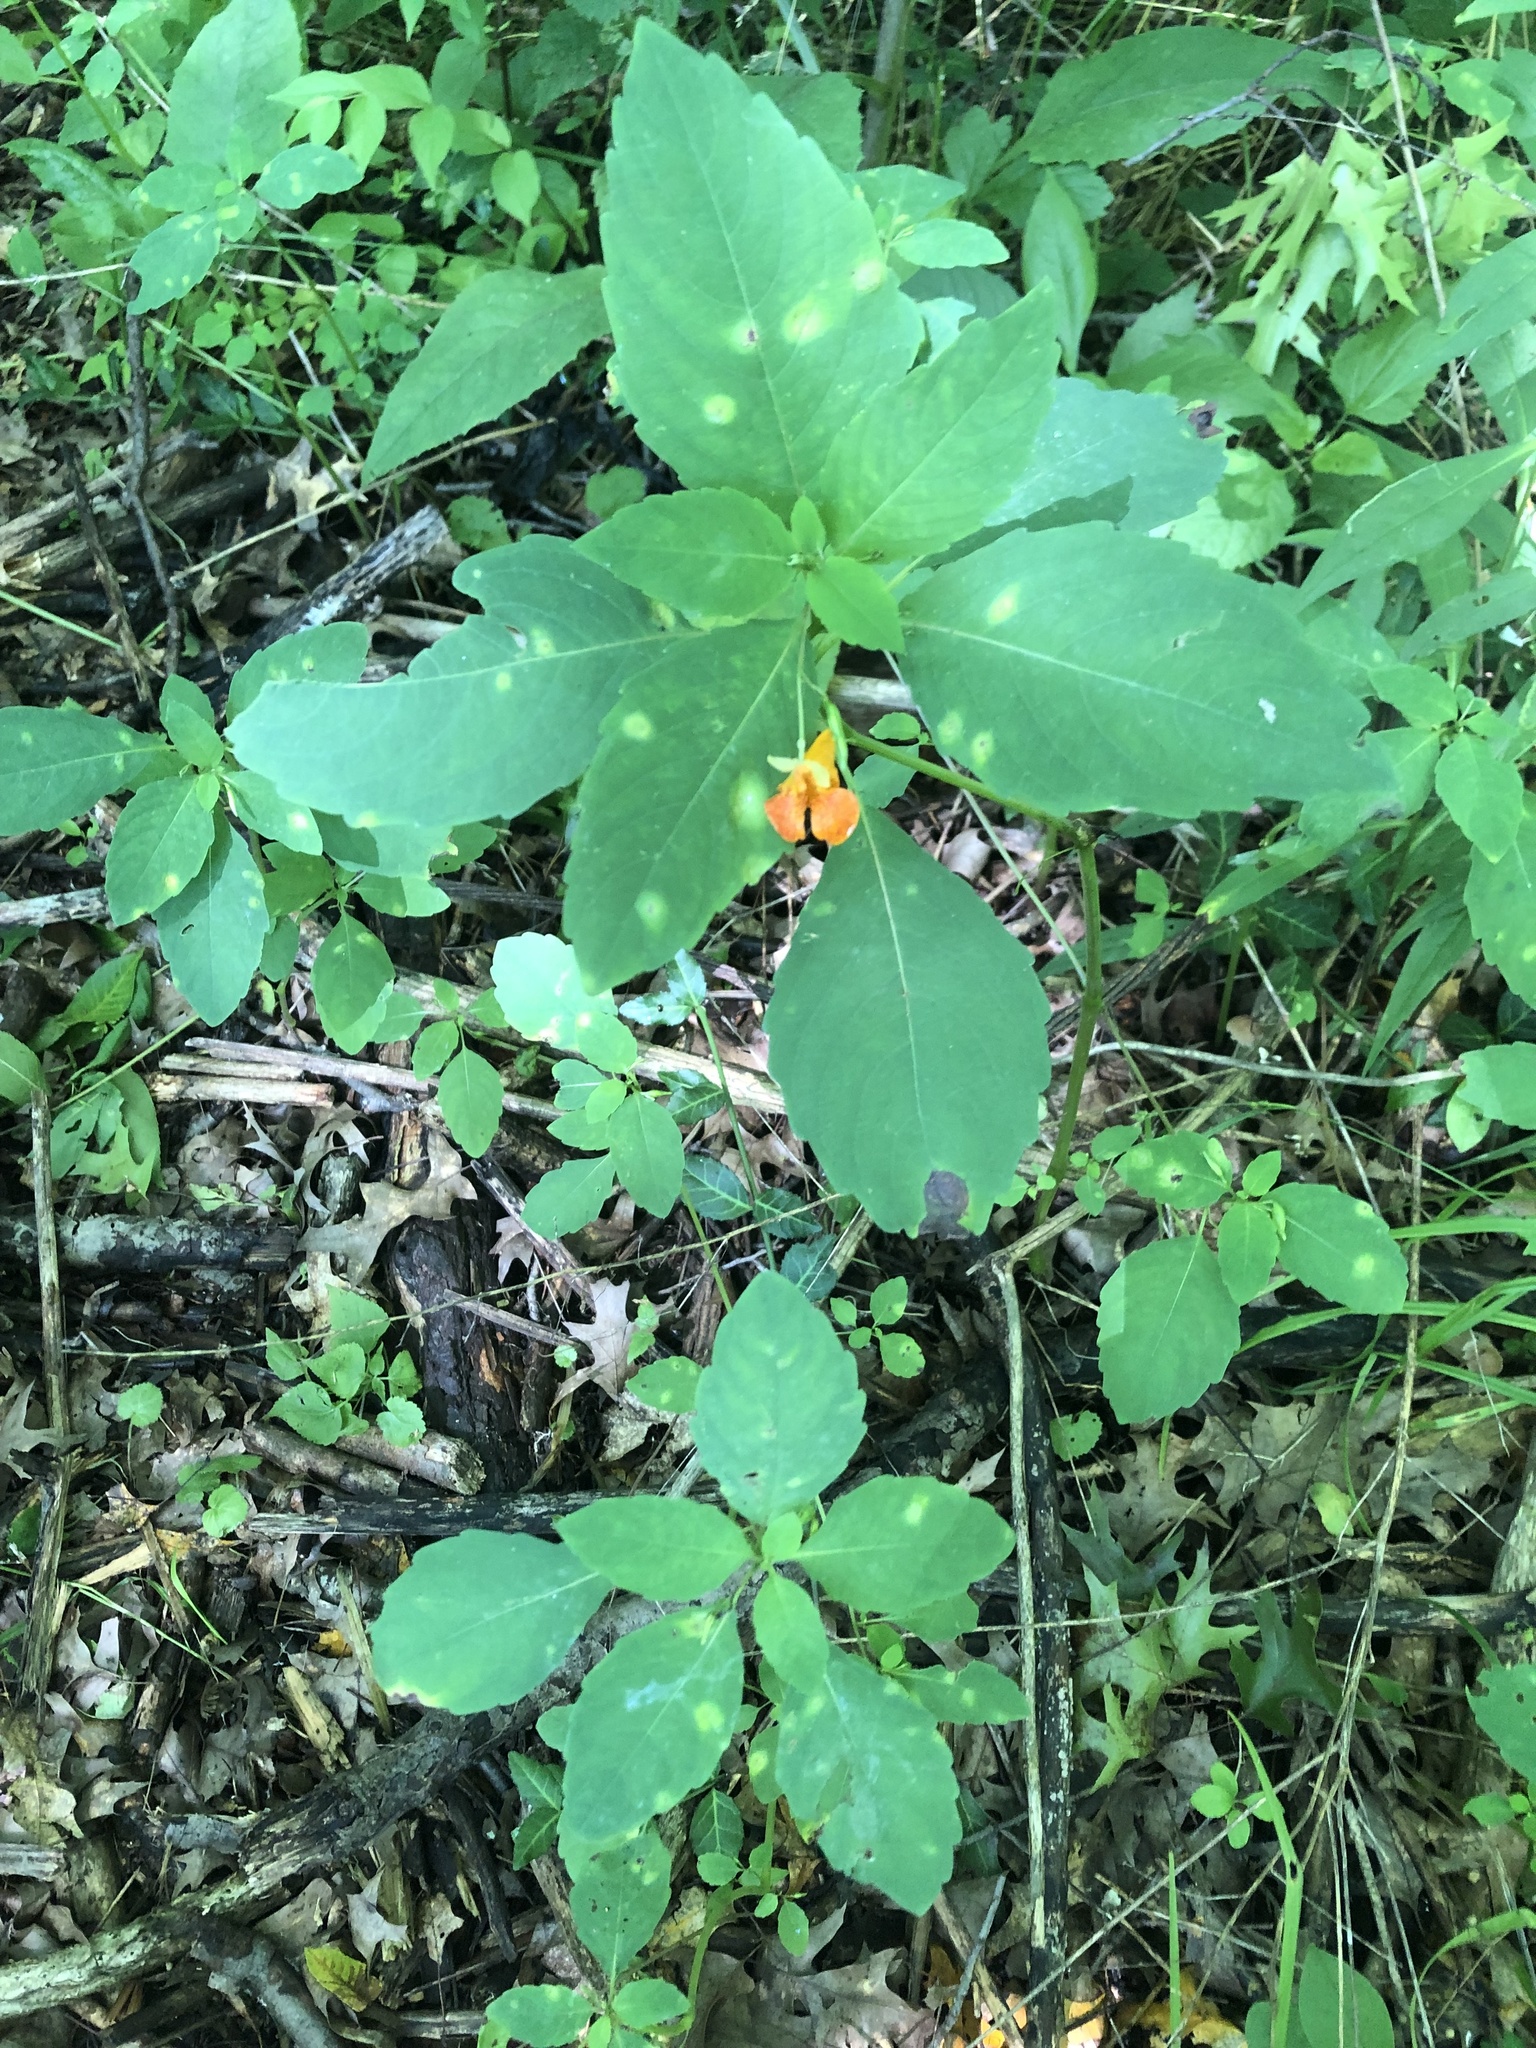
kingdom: Plantae
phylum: Tracheophyta
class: Magnoliopsida
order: Ericales
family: Balsaminaceae
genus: Impatiens
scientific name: Impatiens capensis
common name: Orange balsam
